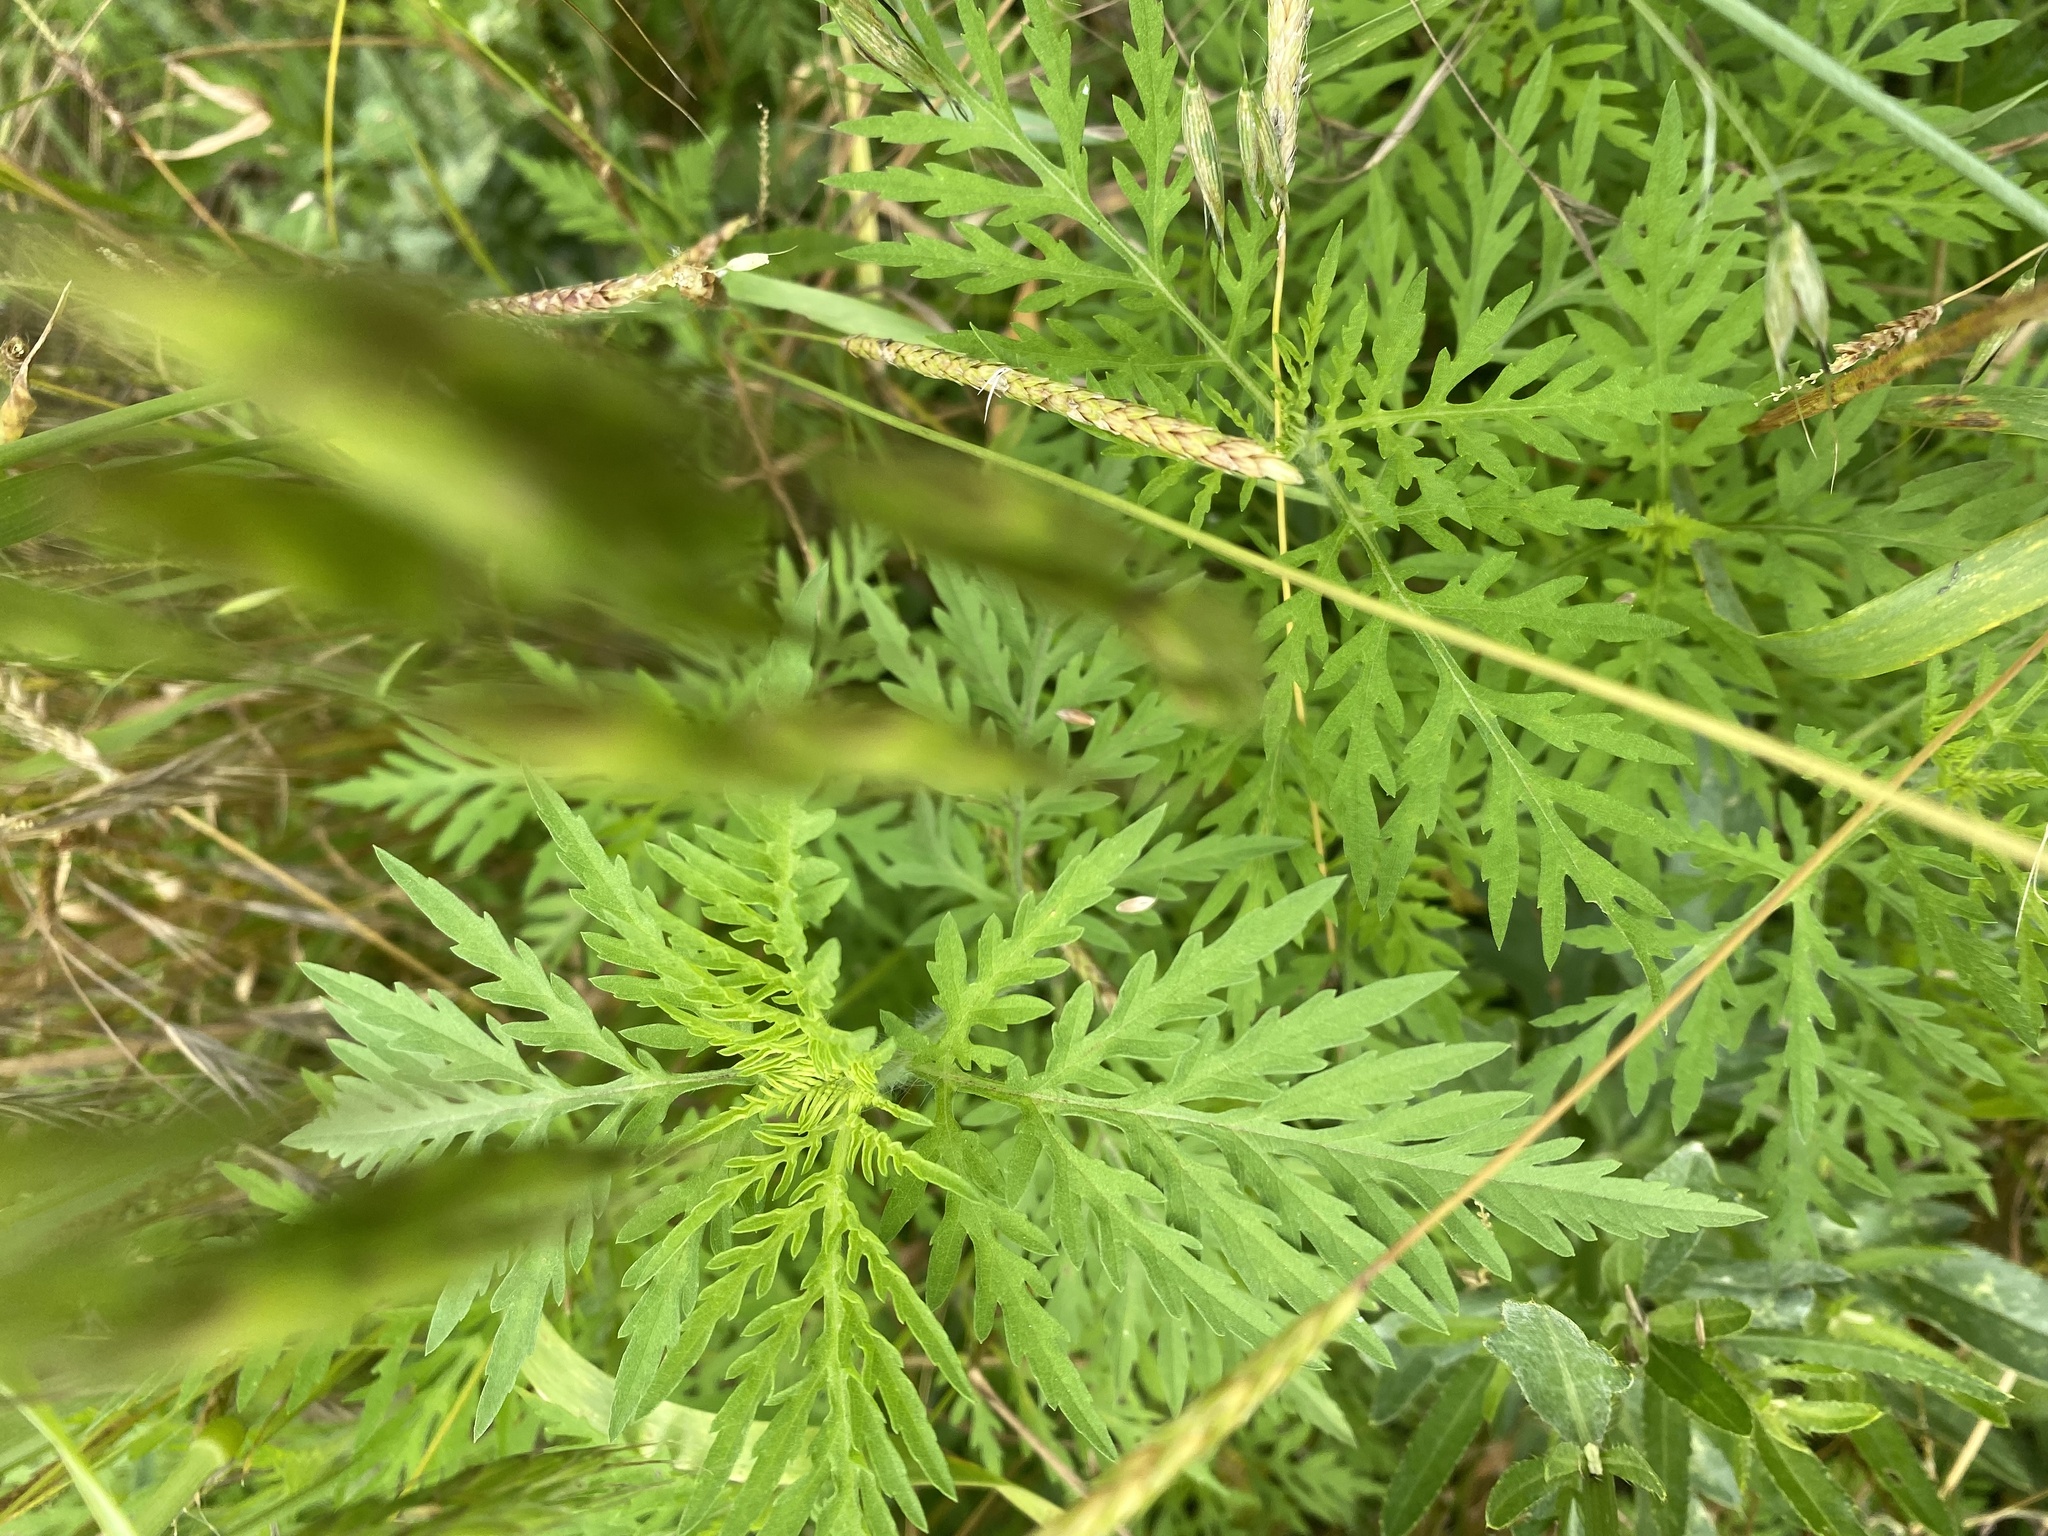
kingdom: Plantae
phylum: Tracheophyta
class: Magnoliopsida
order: Asterales
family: Asteraceae
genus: Ambrosia
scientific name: Ambrosia artemisiifolia
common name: Annual ragweed
